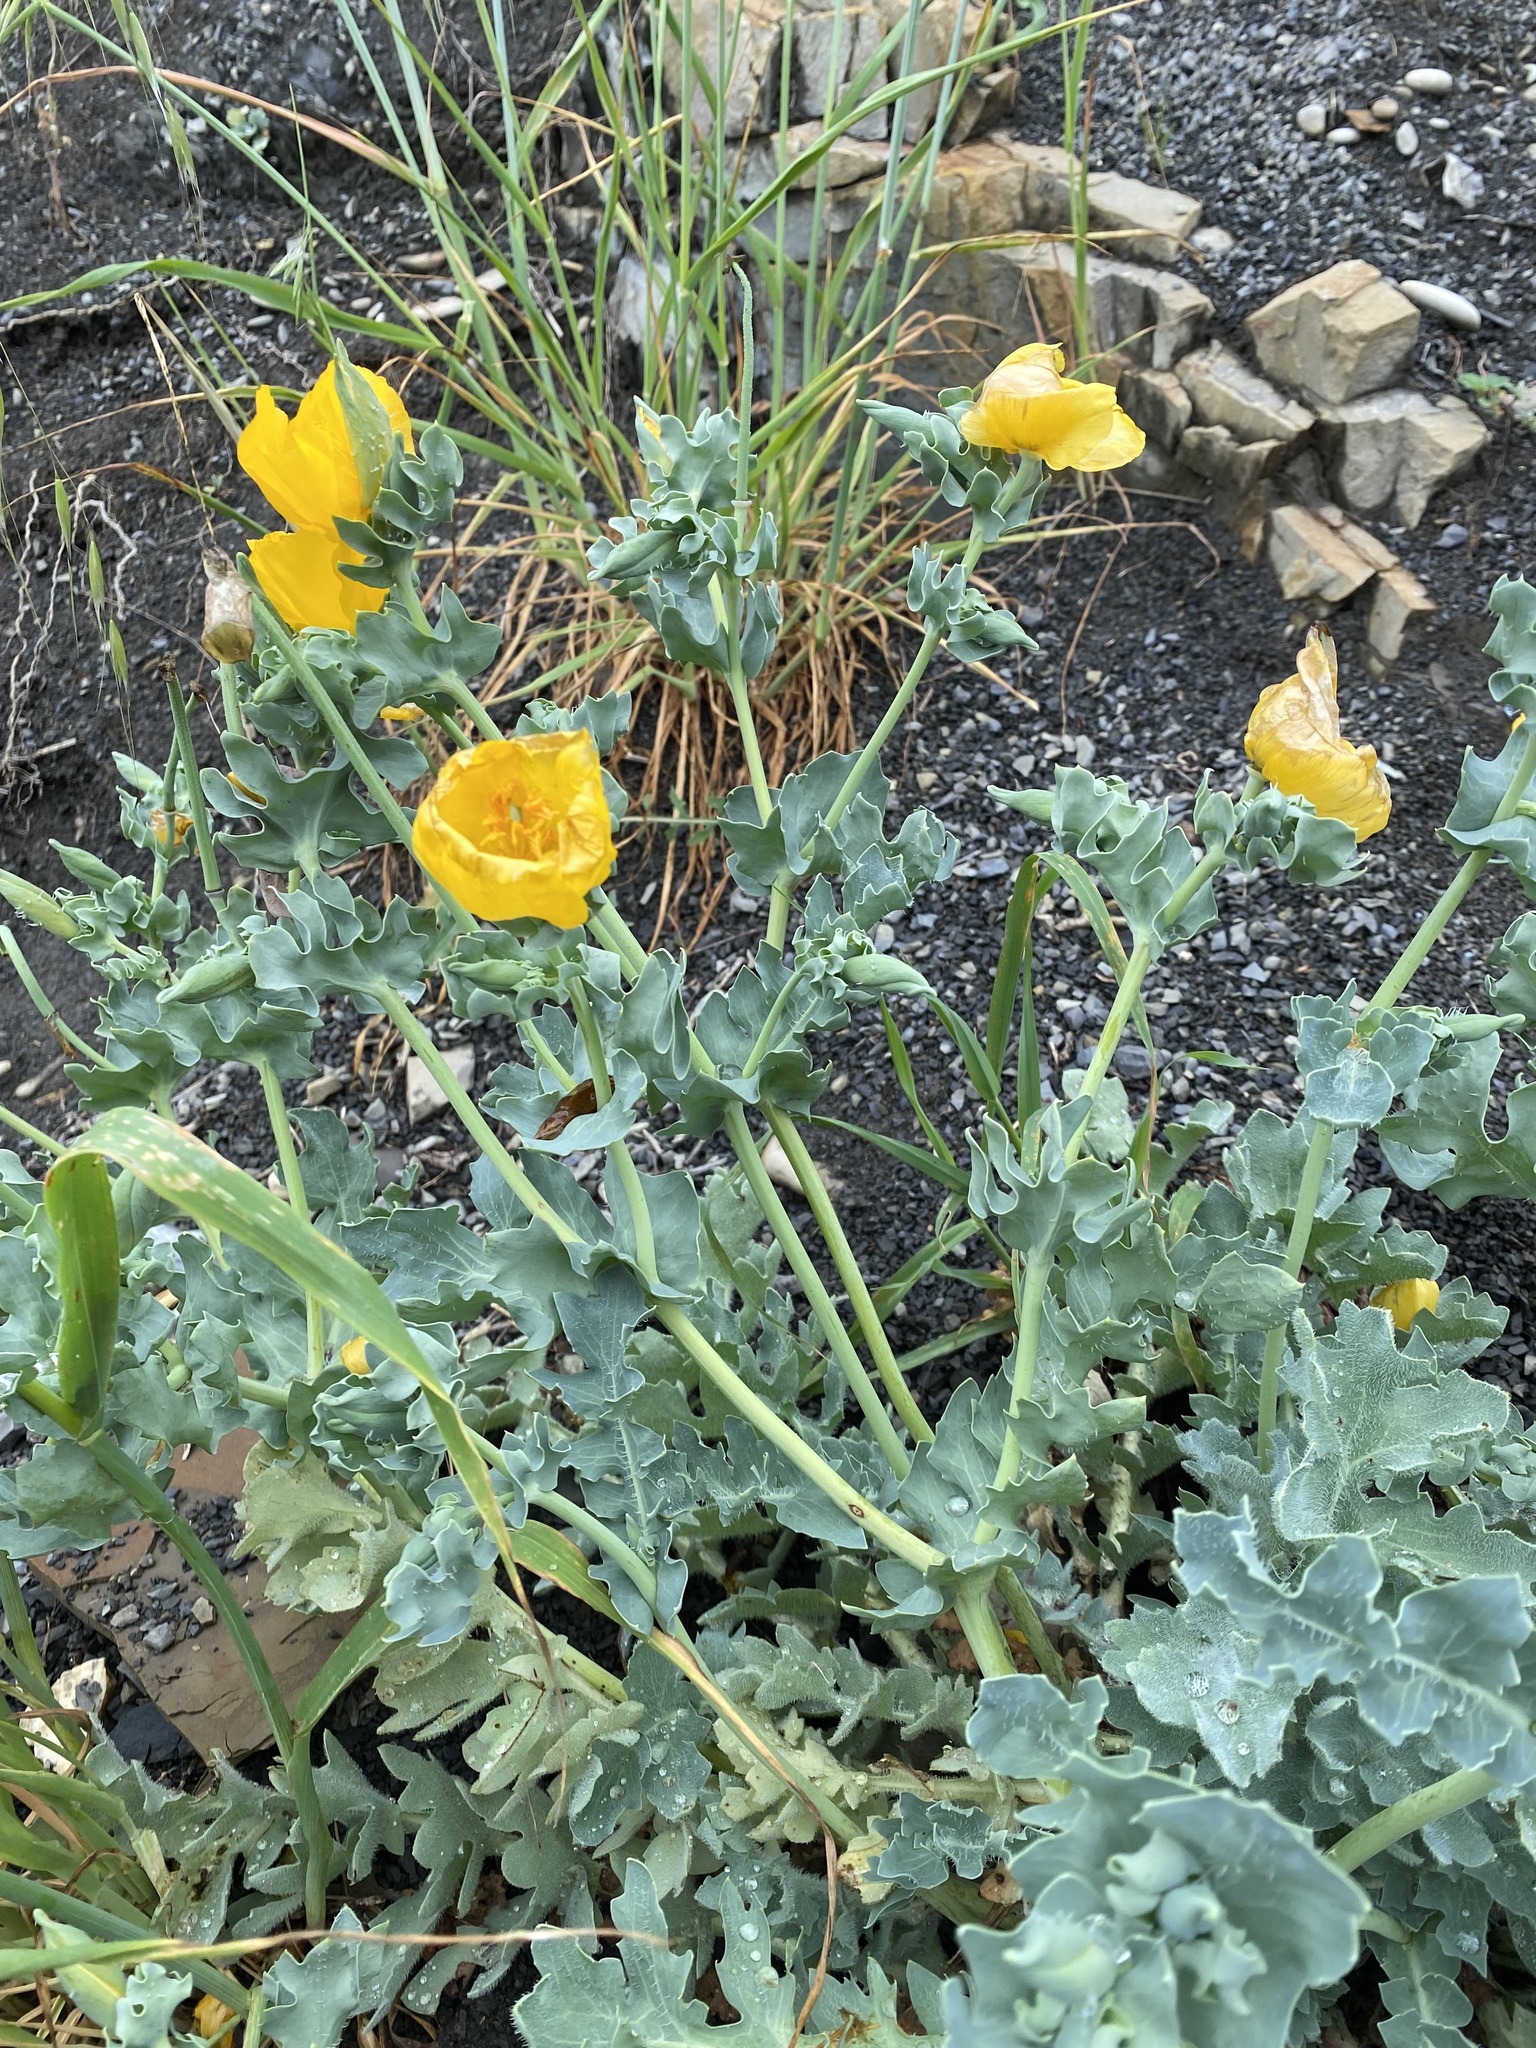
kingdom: Plantae
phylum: Tracheophyta
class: Magnoliopsida
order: Ranunculales
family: Papaveraceae
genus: Glaucium
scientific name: Glaucium flavum
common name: Yellow horned-poppy
